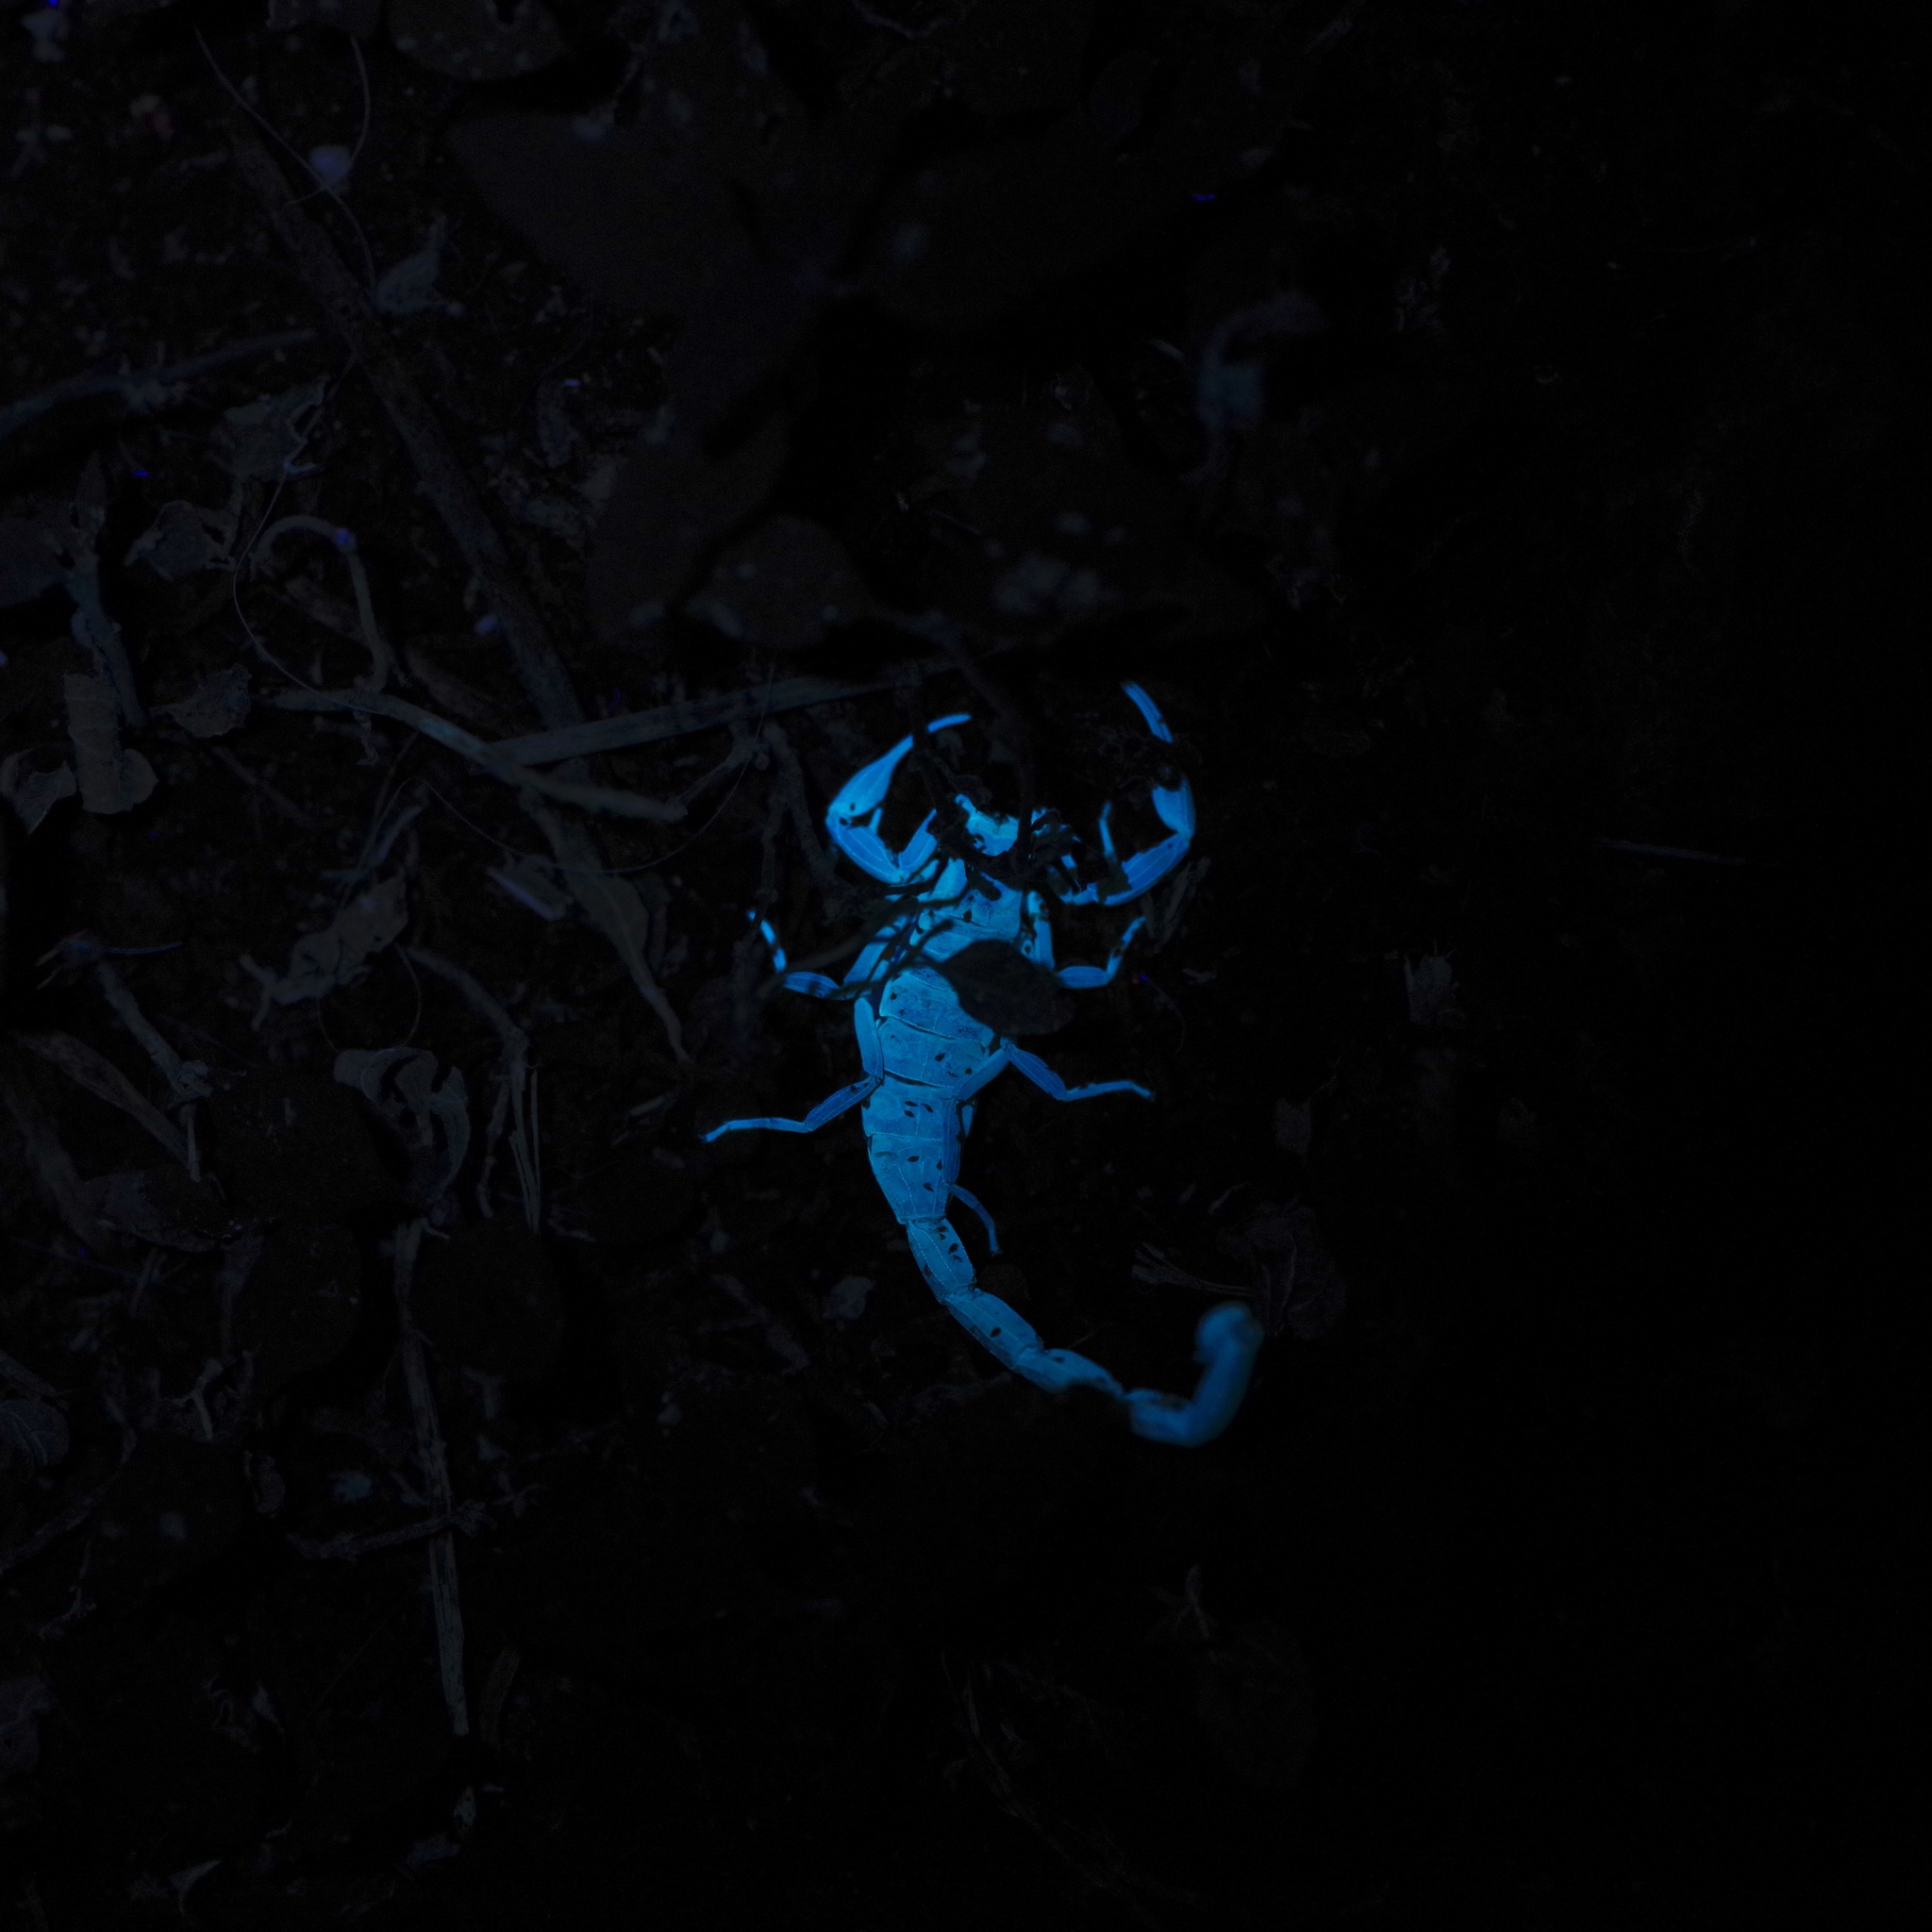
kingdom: Animalia
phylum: Arthropoda
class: Arachnida
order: Scorpiones
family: Buthidae
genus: Centruroides
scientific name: Centruroides vittatus
